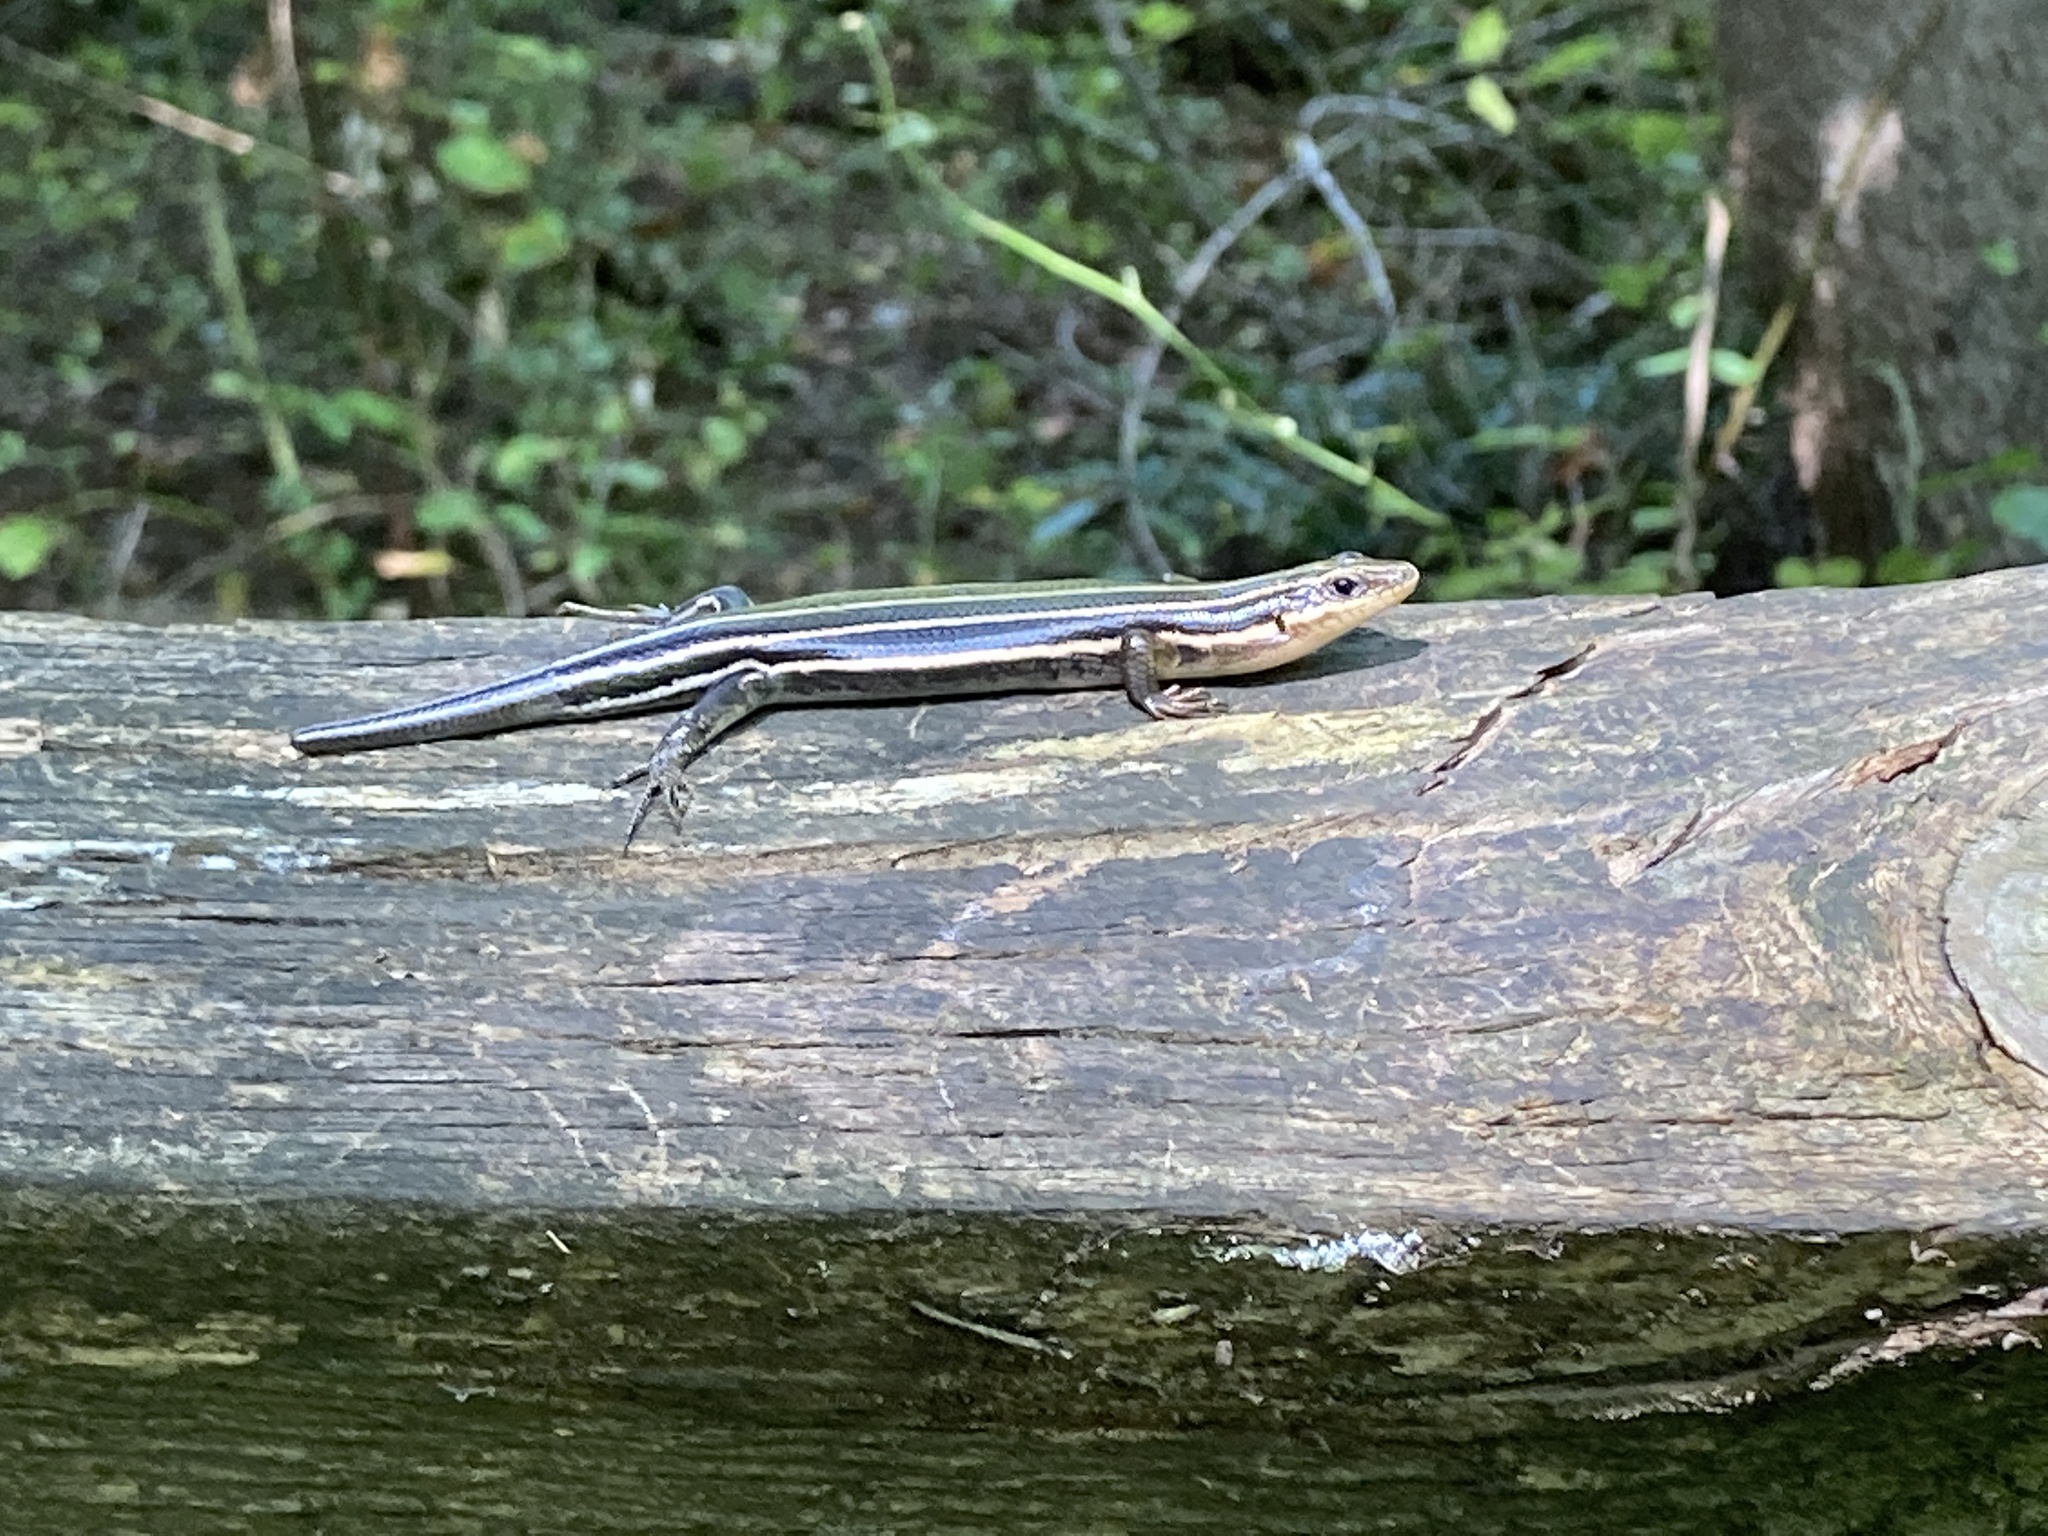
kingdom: Animalia
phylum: Chordata
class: Squamata
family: Scincidae
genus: Plestiodon
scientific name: Plestiodon fasciatus
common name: Five-lined skink
